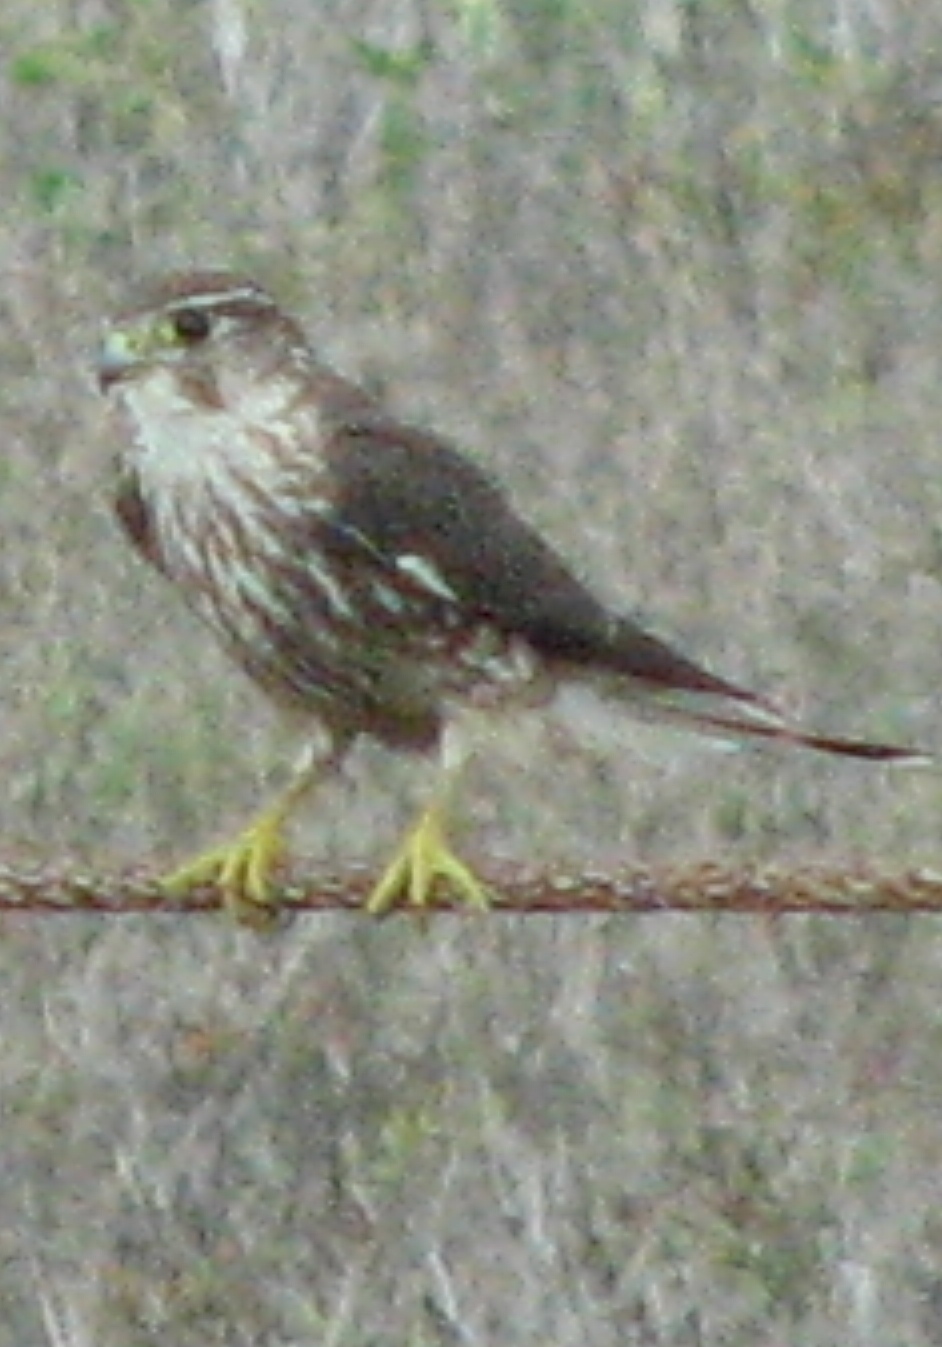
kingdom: Animalia
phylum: Chordata
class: Aves
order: Falconiformes
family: Falconidae
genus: Falco
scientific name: Falco columbarius
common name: Merlin
